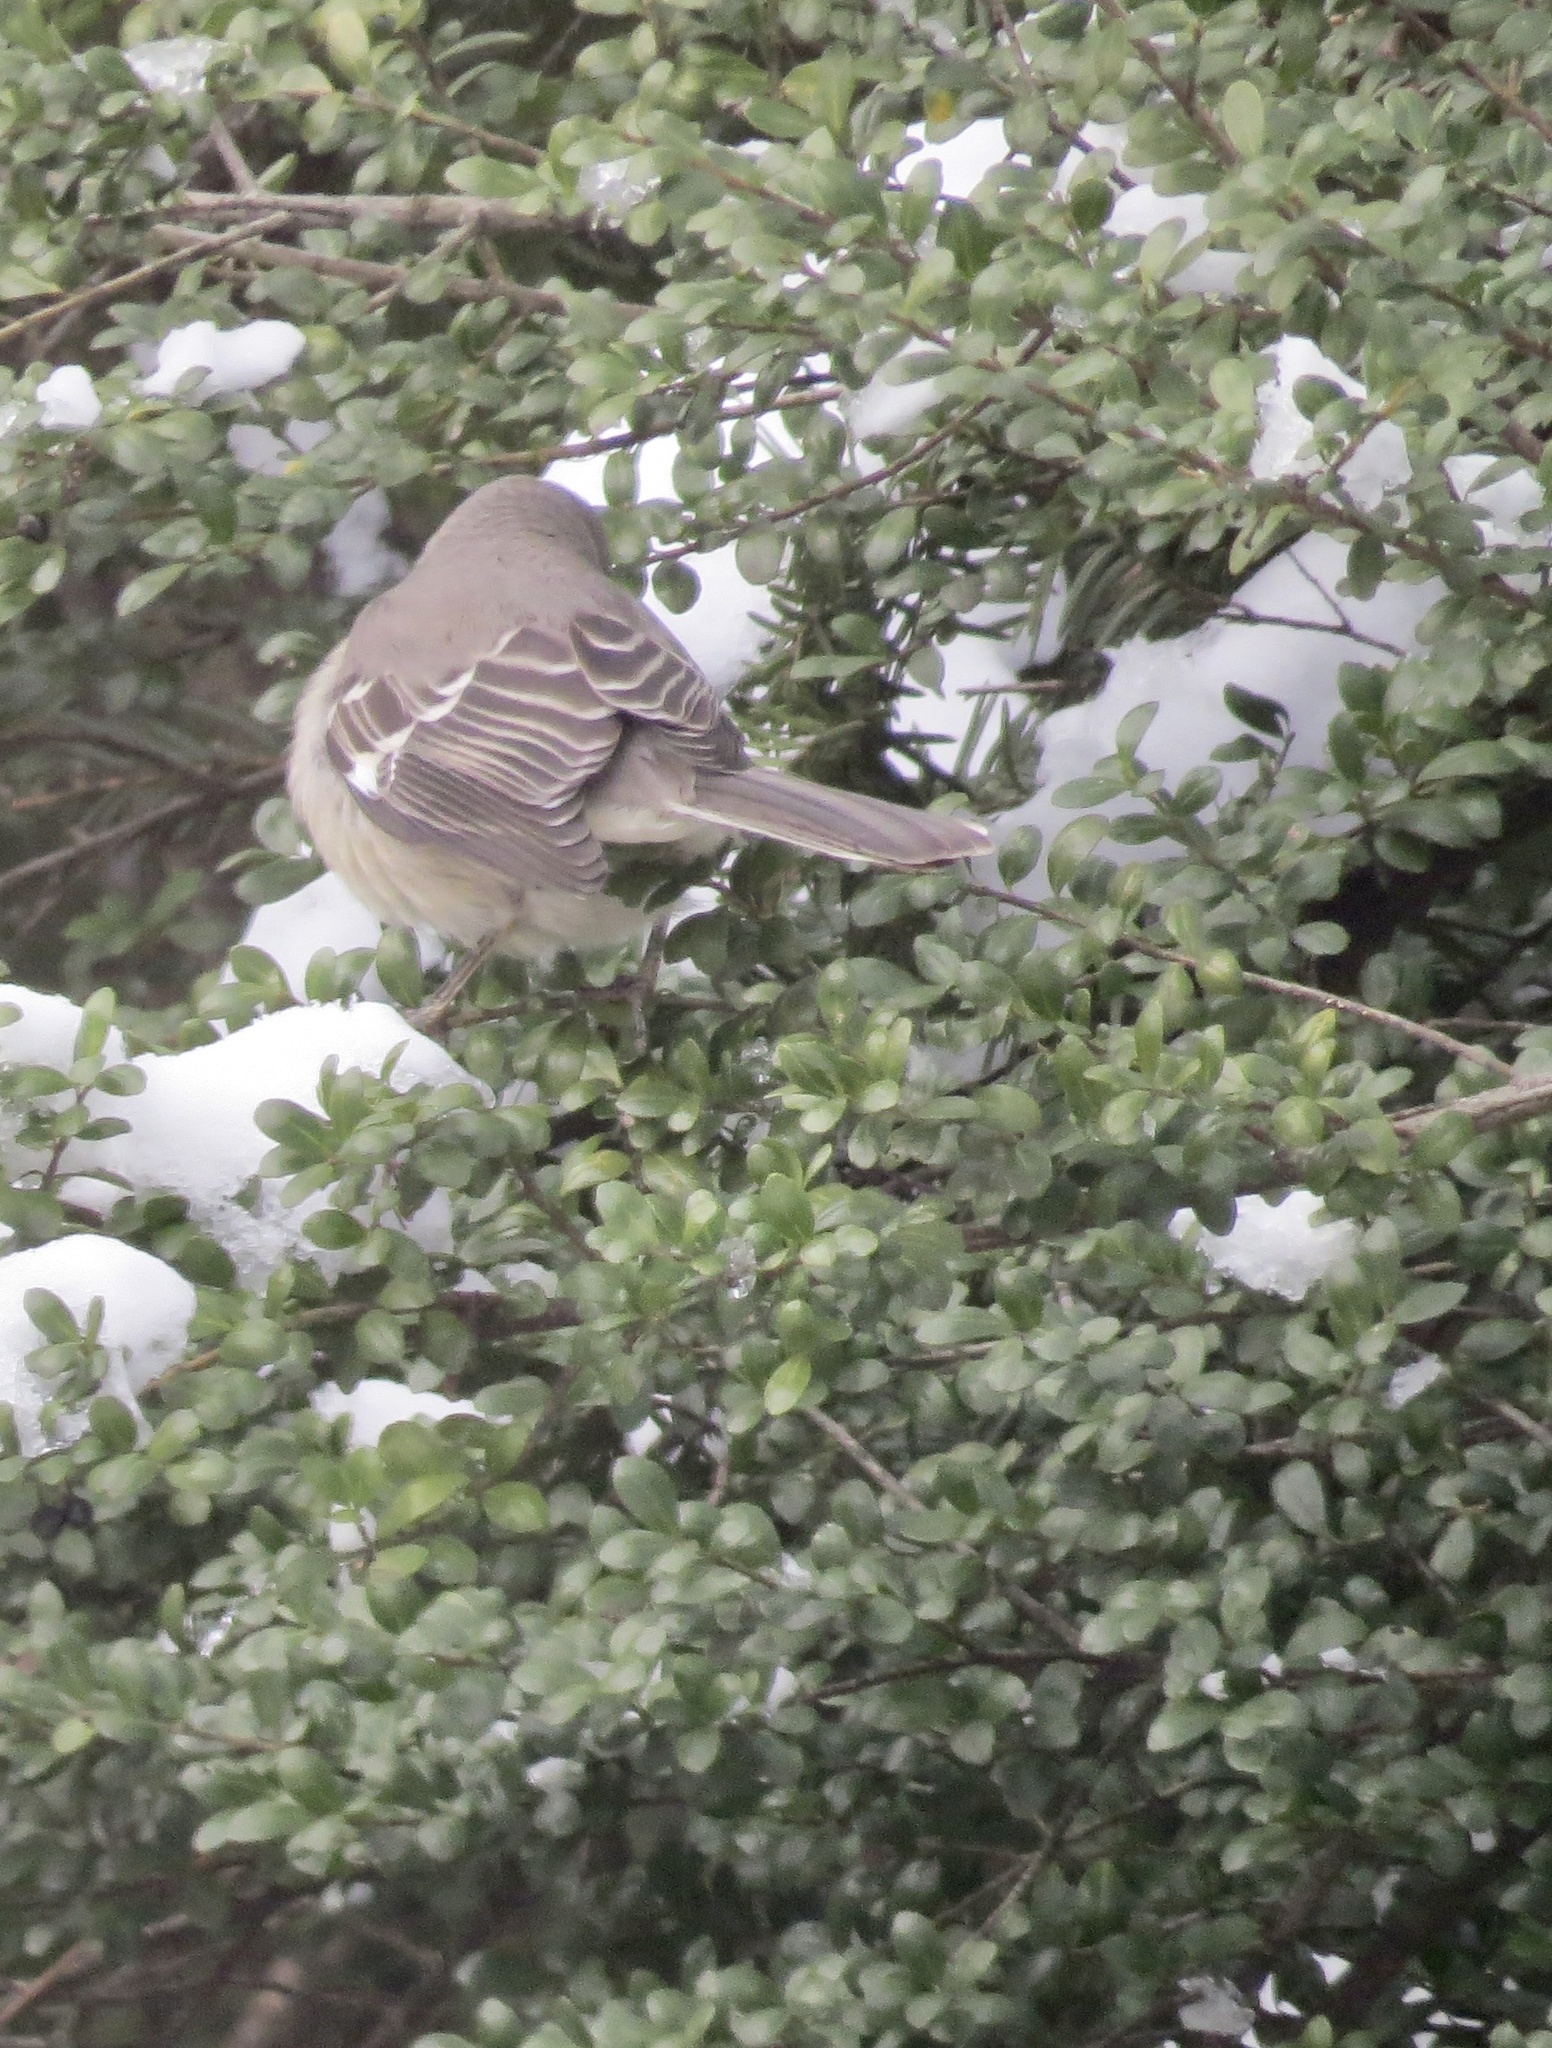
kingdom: Animalia
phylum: Chordata
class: Aves
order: Passeriformes
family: Mimidae
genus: Mimus
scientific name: Mimus polyglottos
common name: Northern mockingbird
